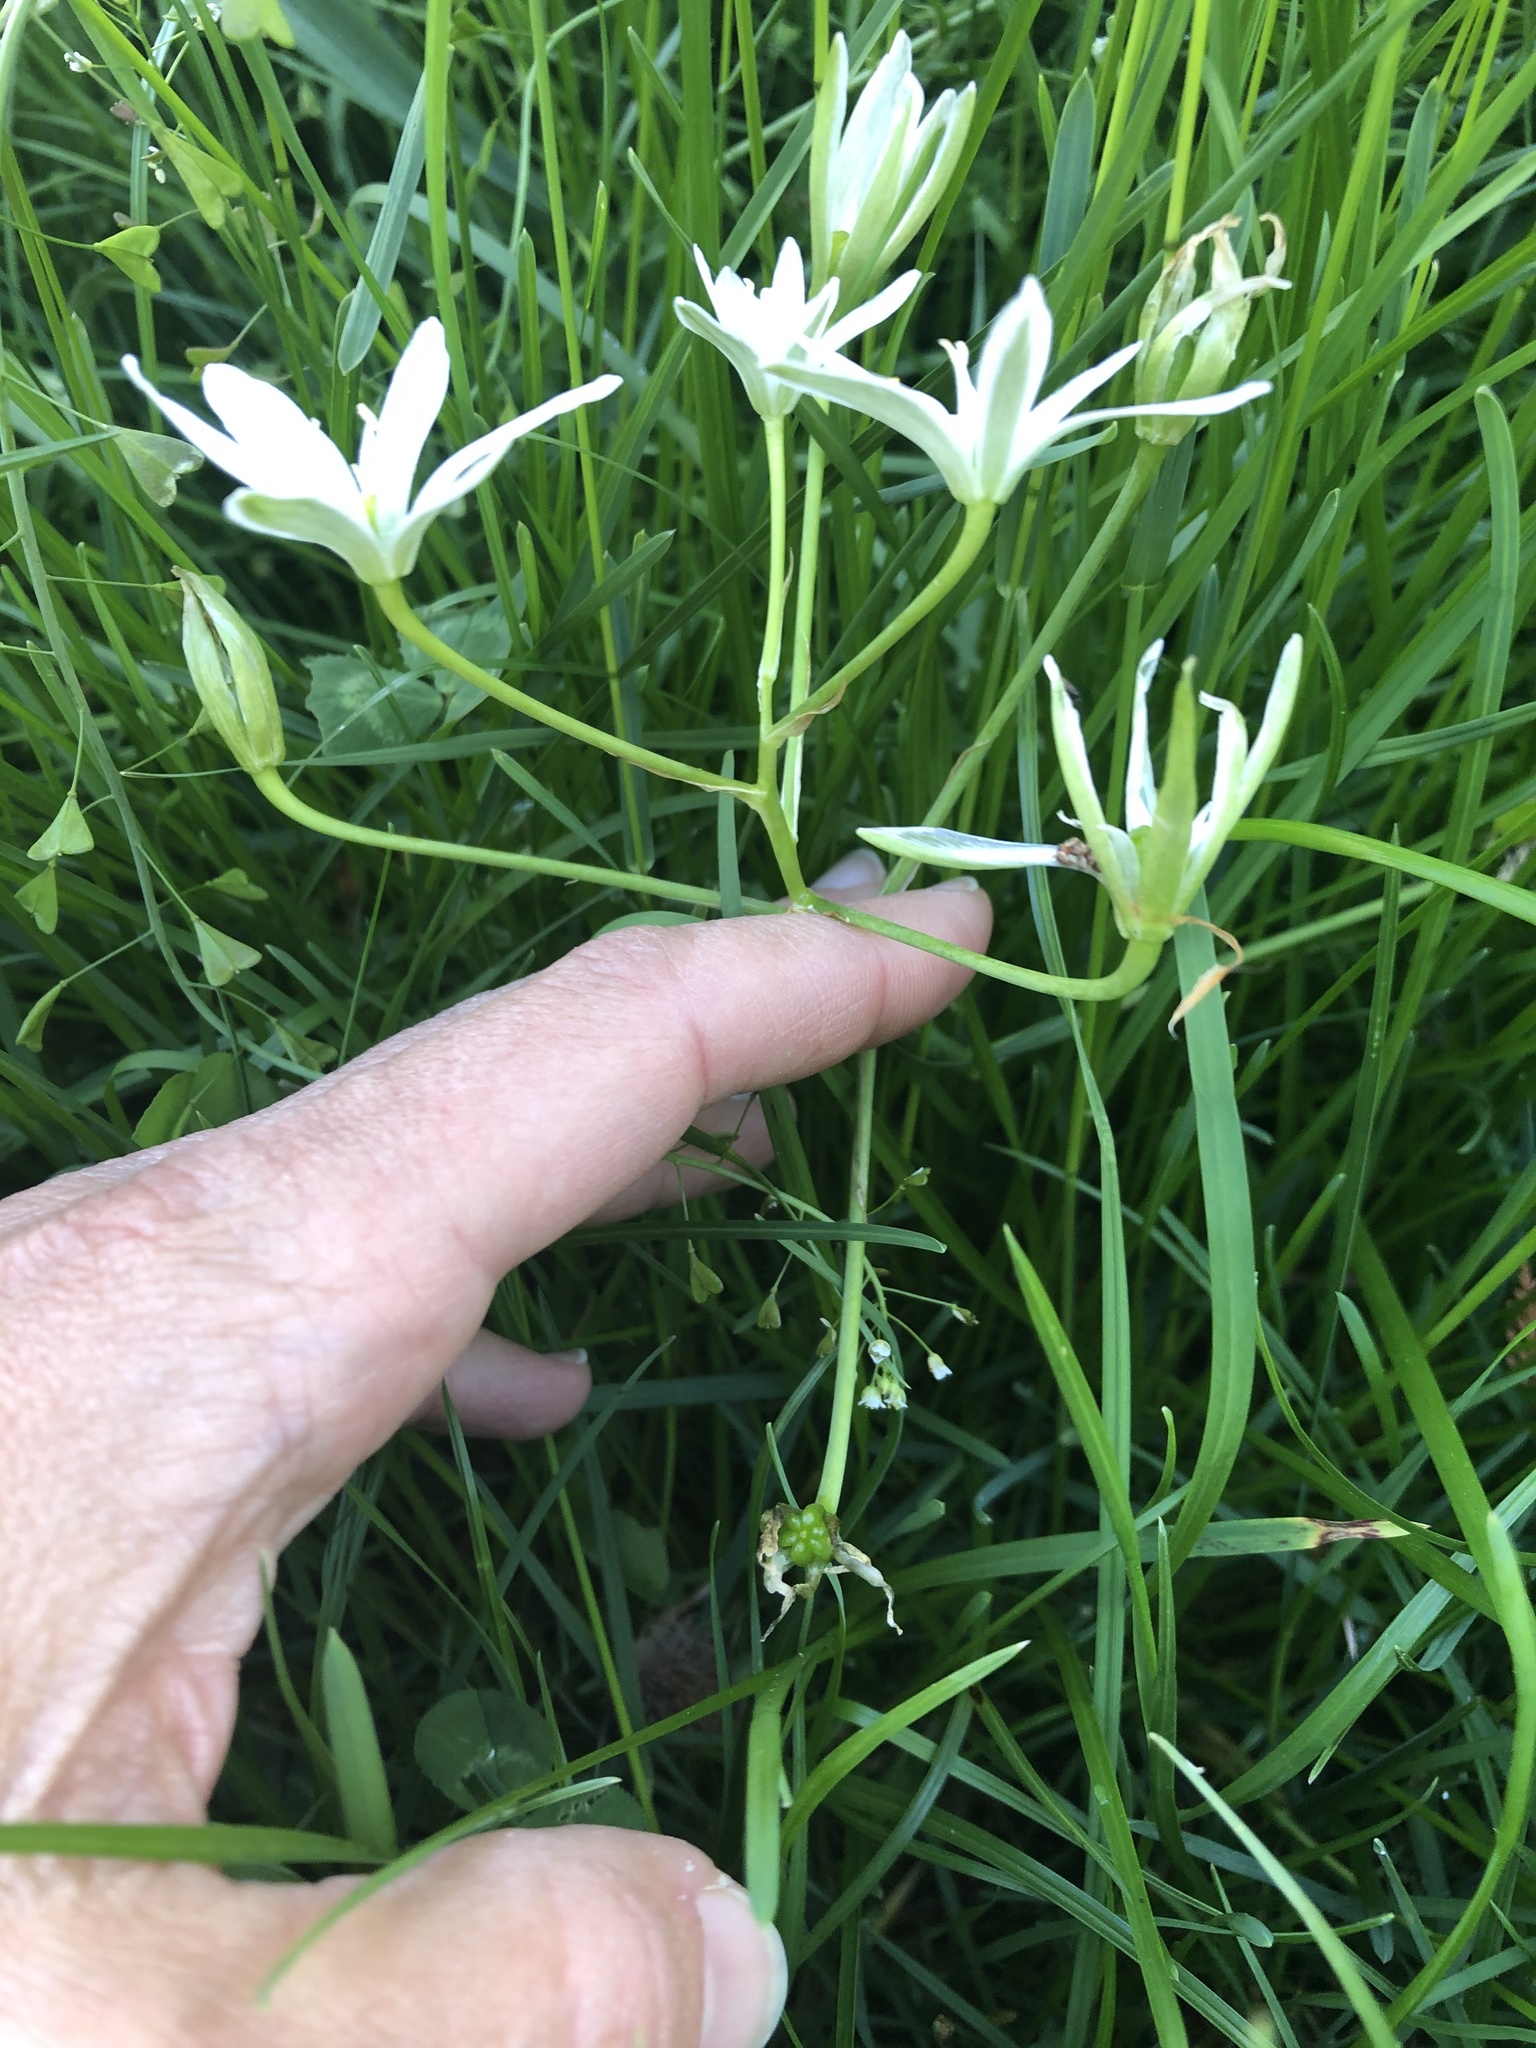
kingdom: Plantae
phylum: Tracheophyta
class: Liliopsida
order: Asparagales
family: Asparagaceae
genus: Ornithogalum
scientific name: Ornithogalum umbellatum
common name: Garden star-of-bethlehem
